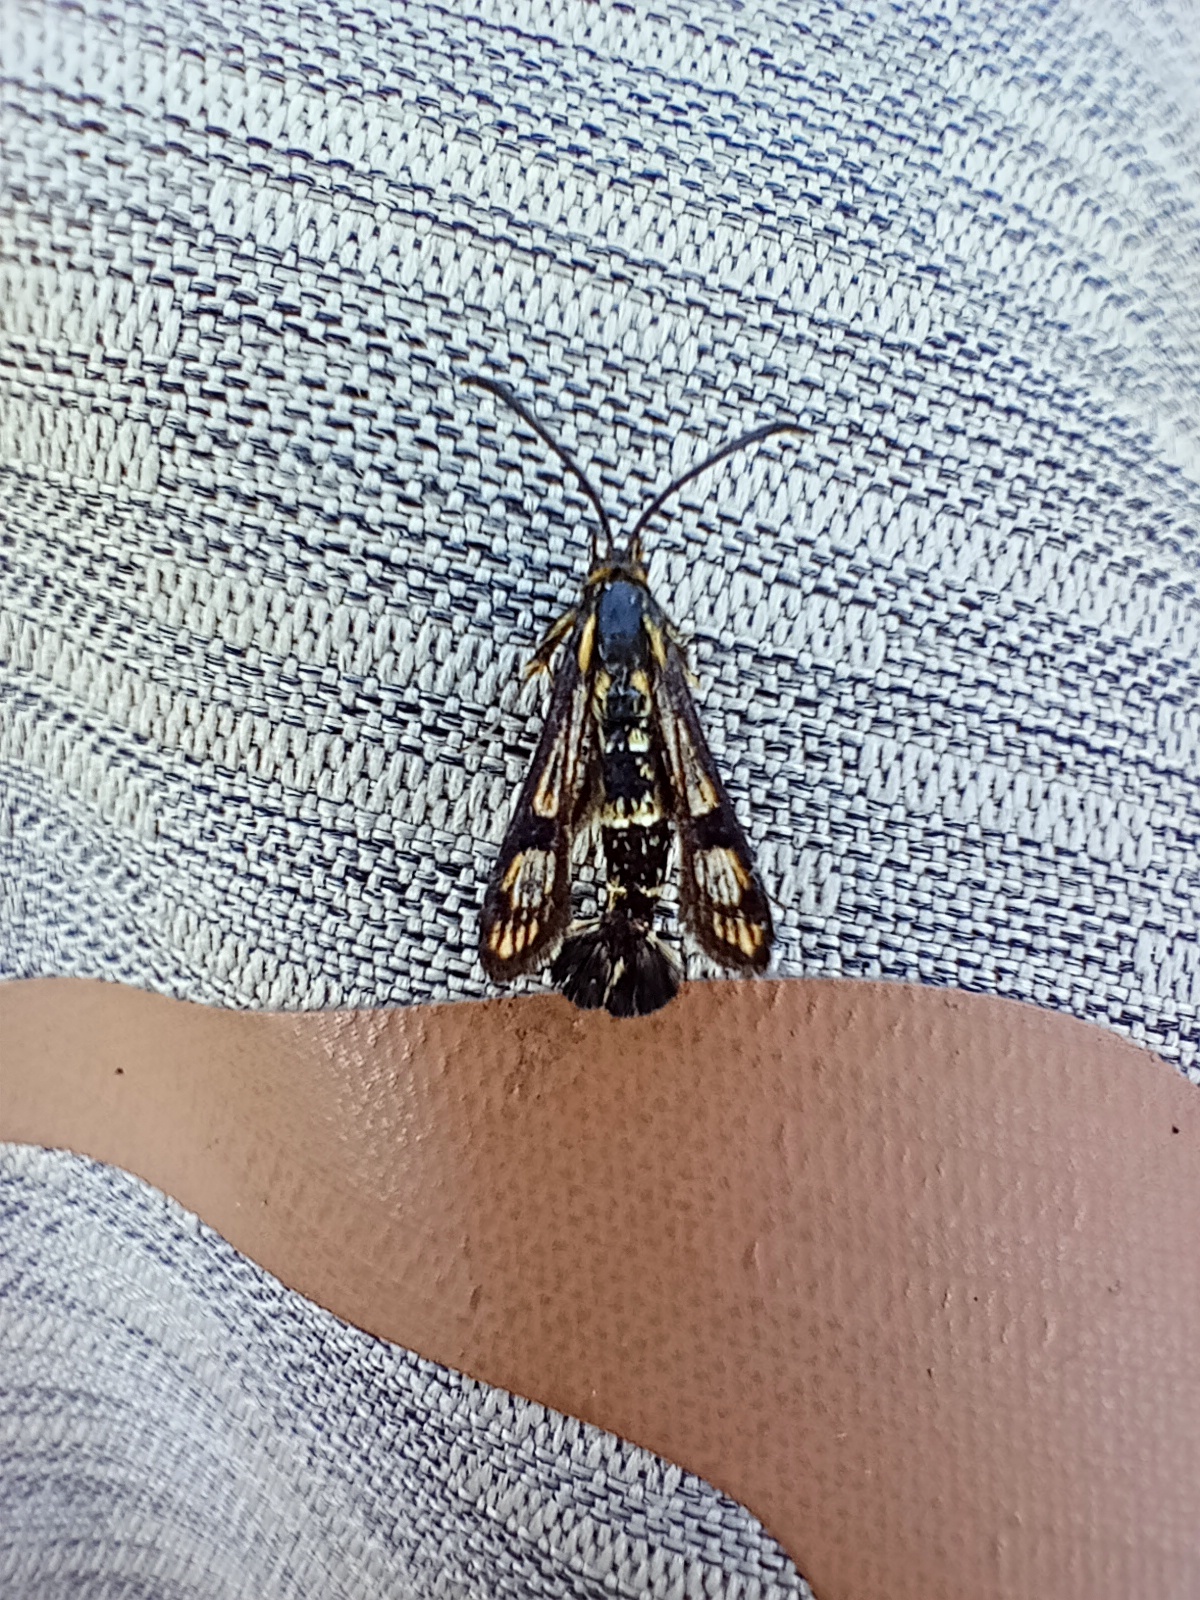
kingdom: Animalia
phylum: Arthropoda
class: Insecta
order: Lepidoptera
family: Sesiidae
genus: Chamaesphecia
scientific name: Chamaesphecia empiformis
